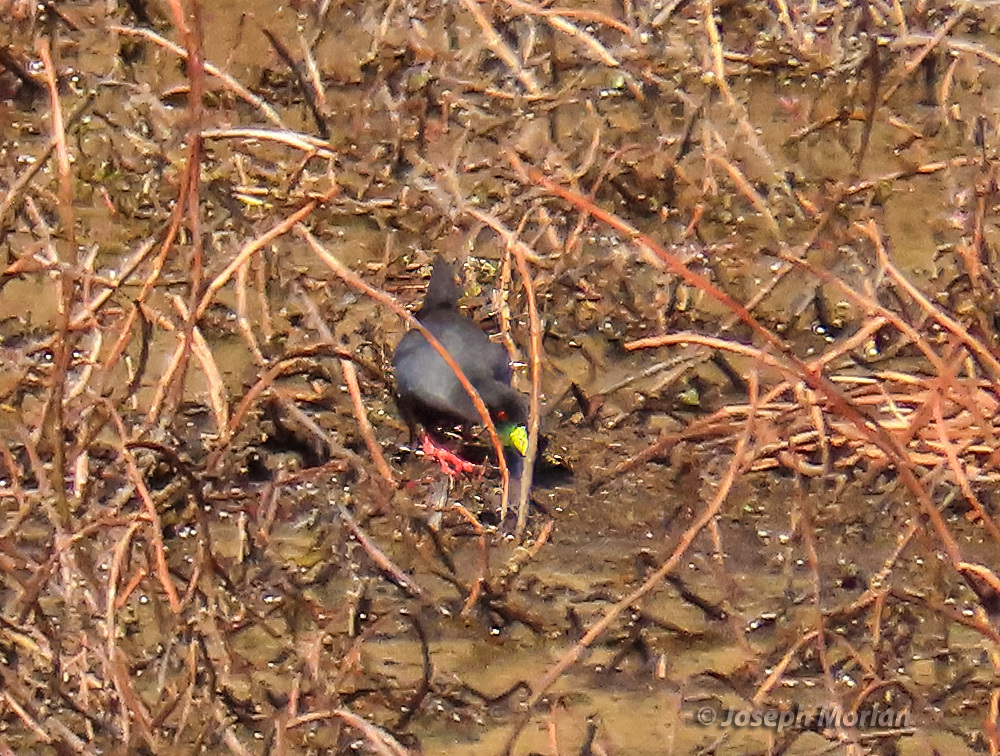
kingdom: Animalia
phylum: Chordata
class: Aves
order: Gruiformes
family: Rallidae
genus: Amaurornis
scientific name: Amaurornis flavirostra
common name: Black crake
